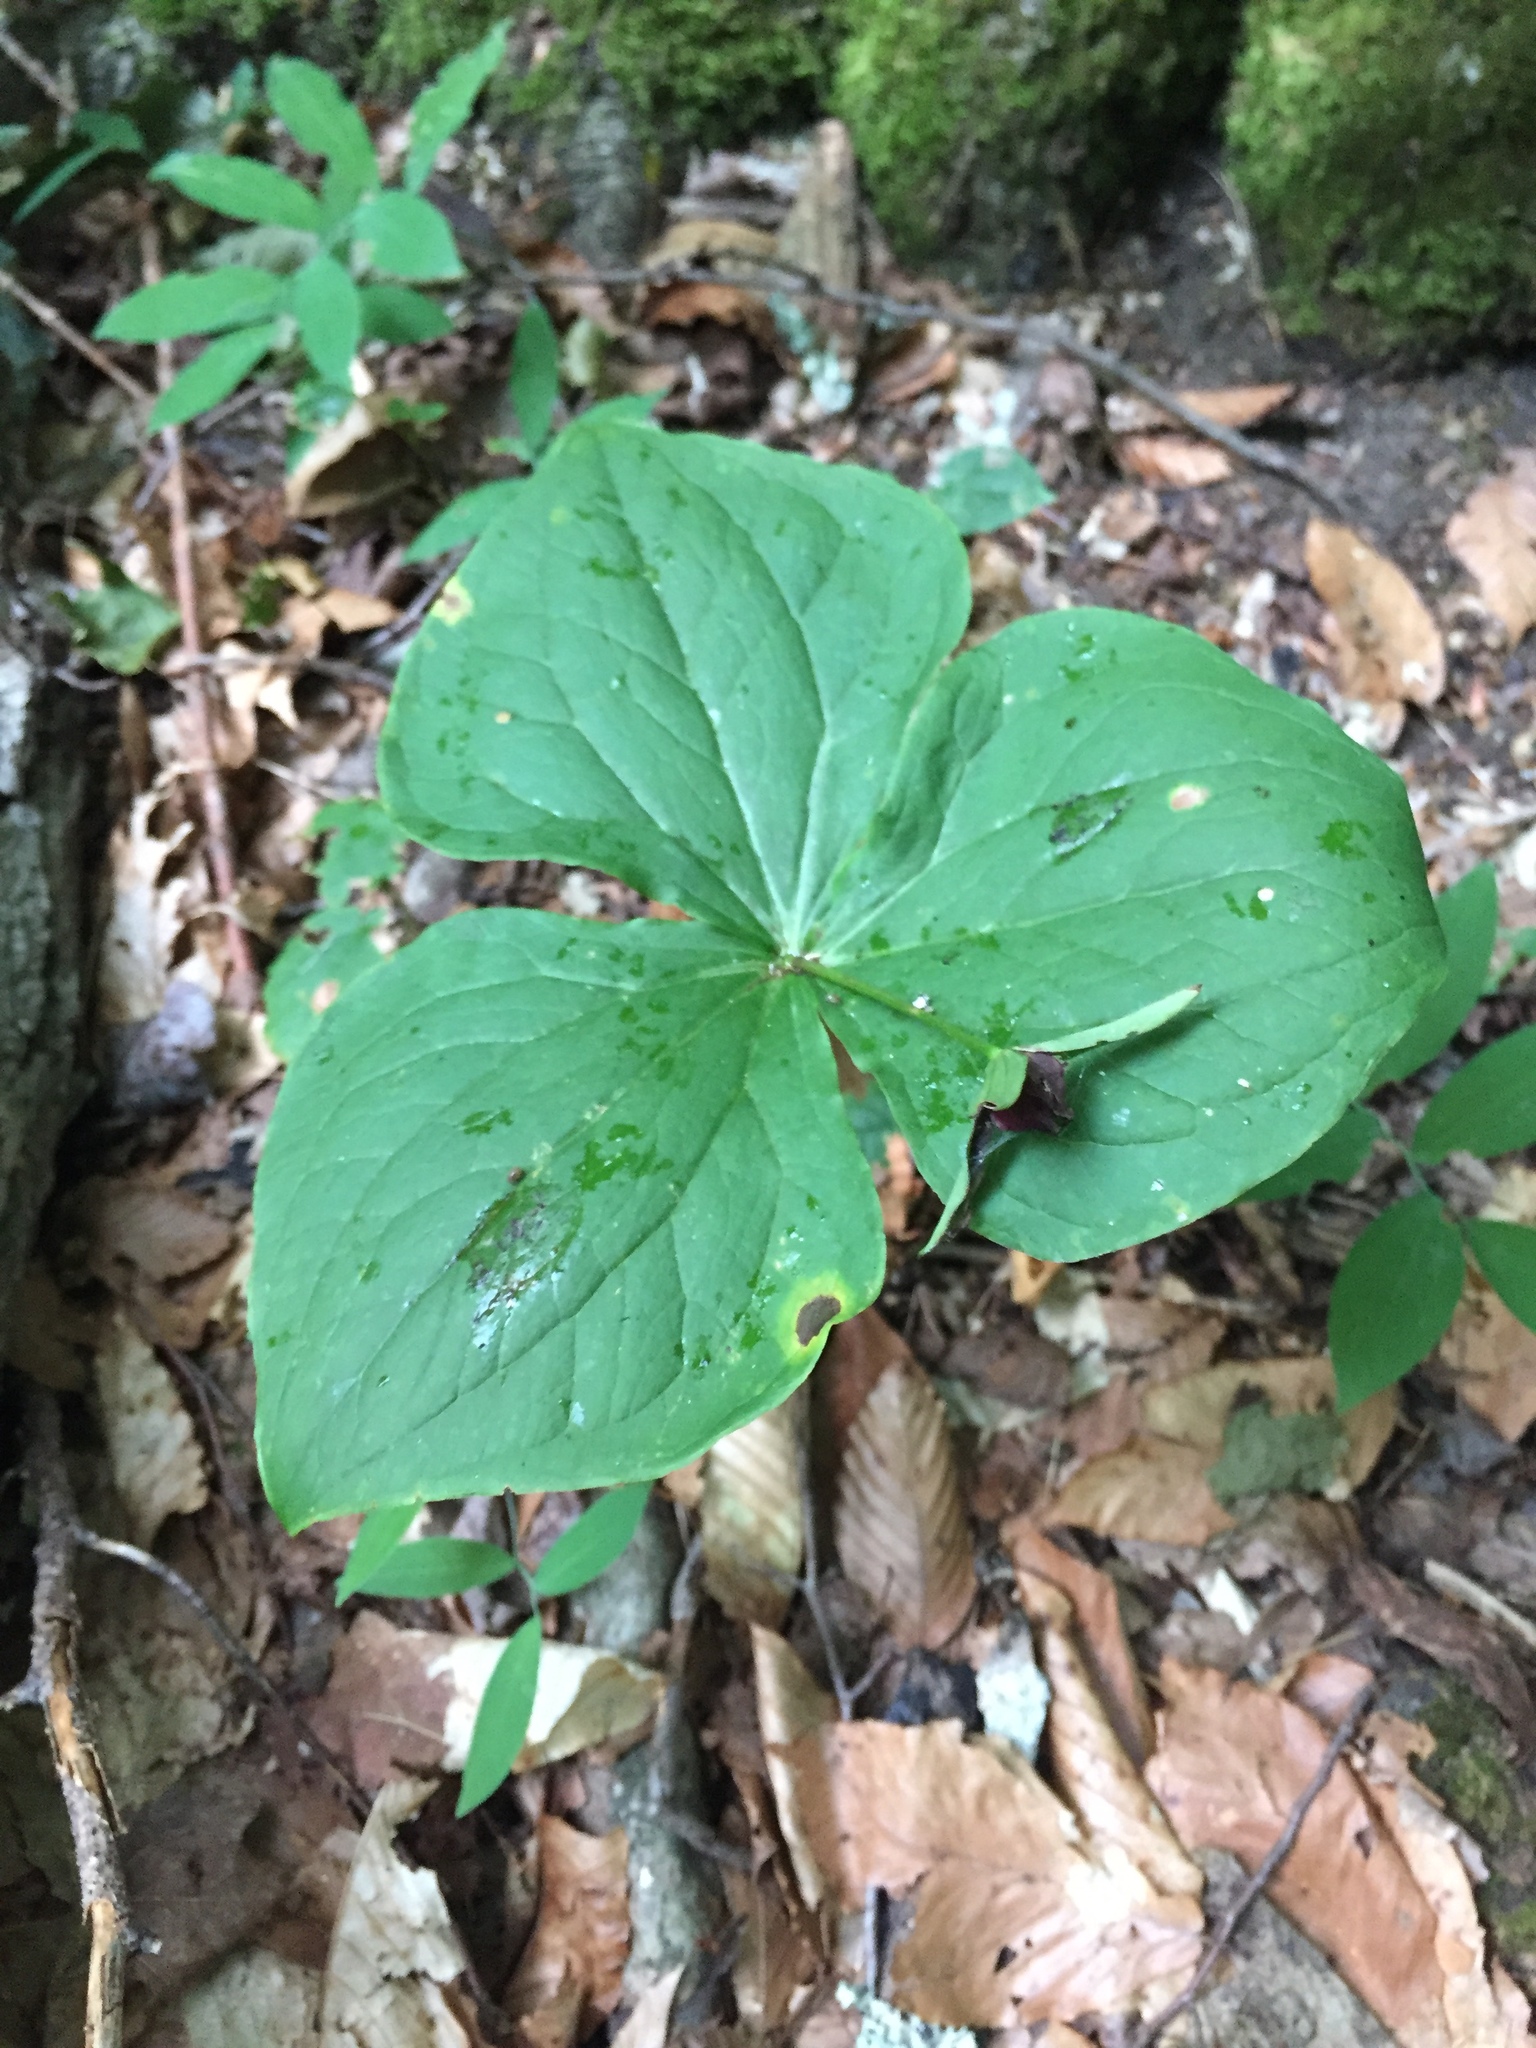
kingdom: Plantae
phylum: Tracheophyta
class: Liliopsida
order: Liliales
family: Melanthiaceae
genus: Trillium
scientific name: Trillium erectum
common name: Purple trillium
